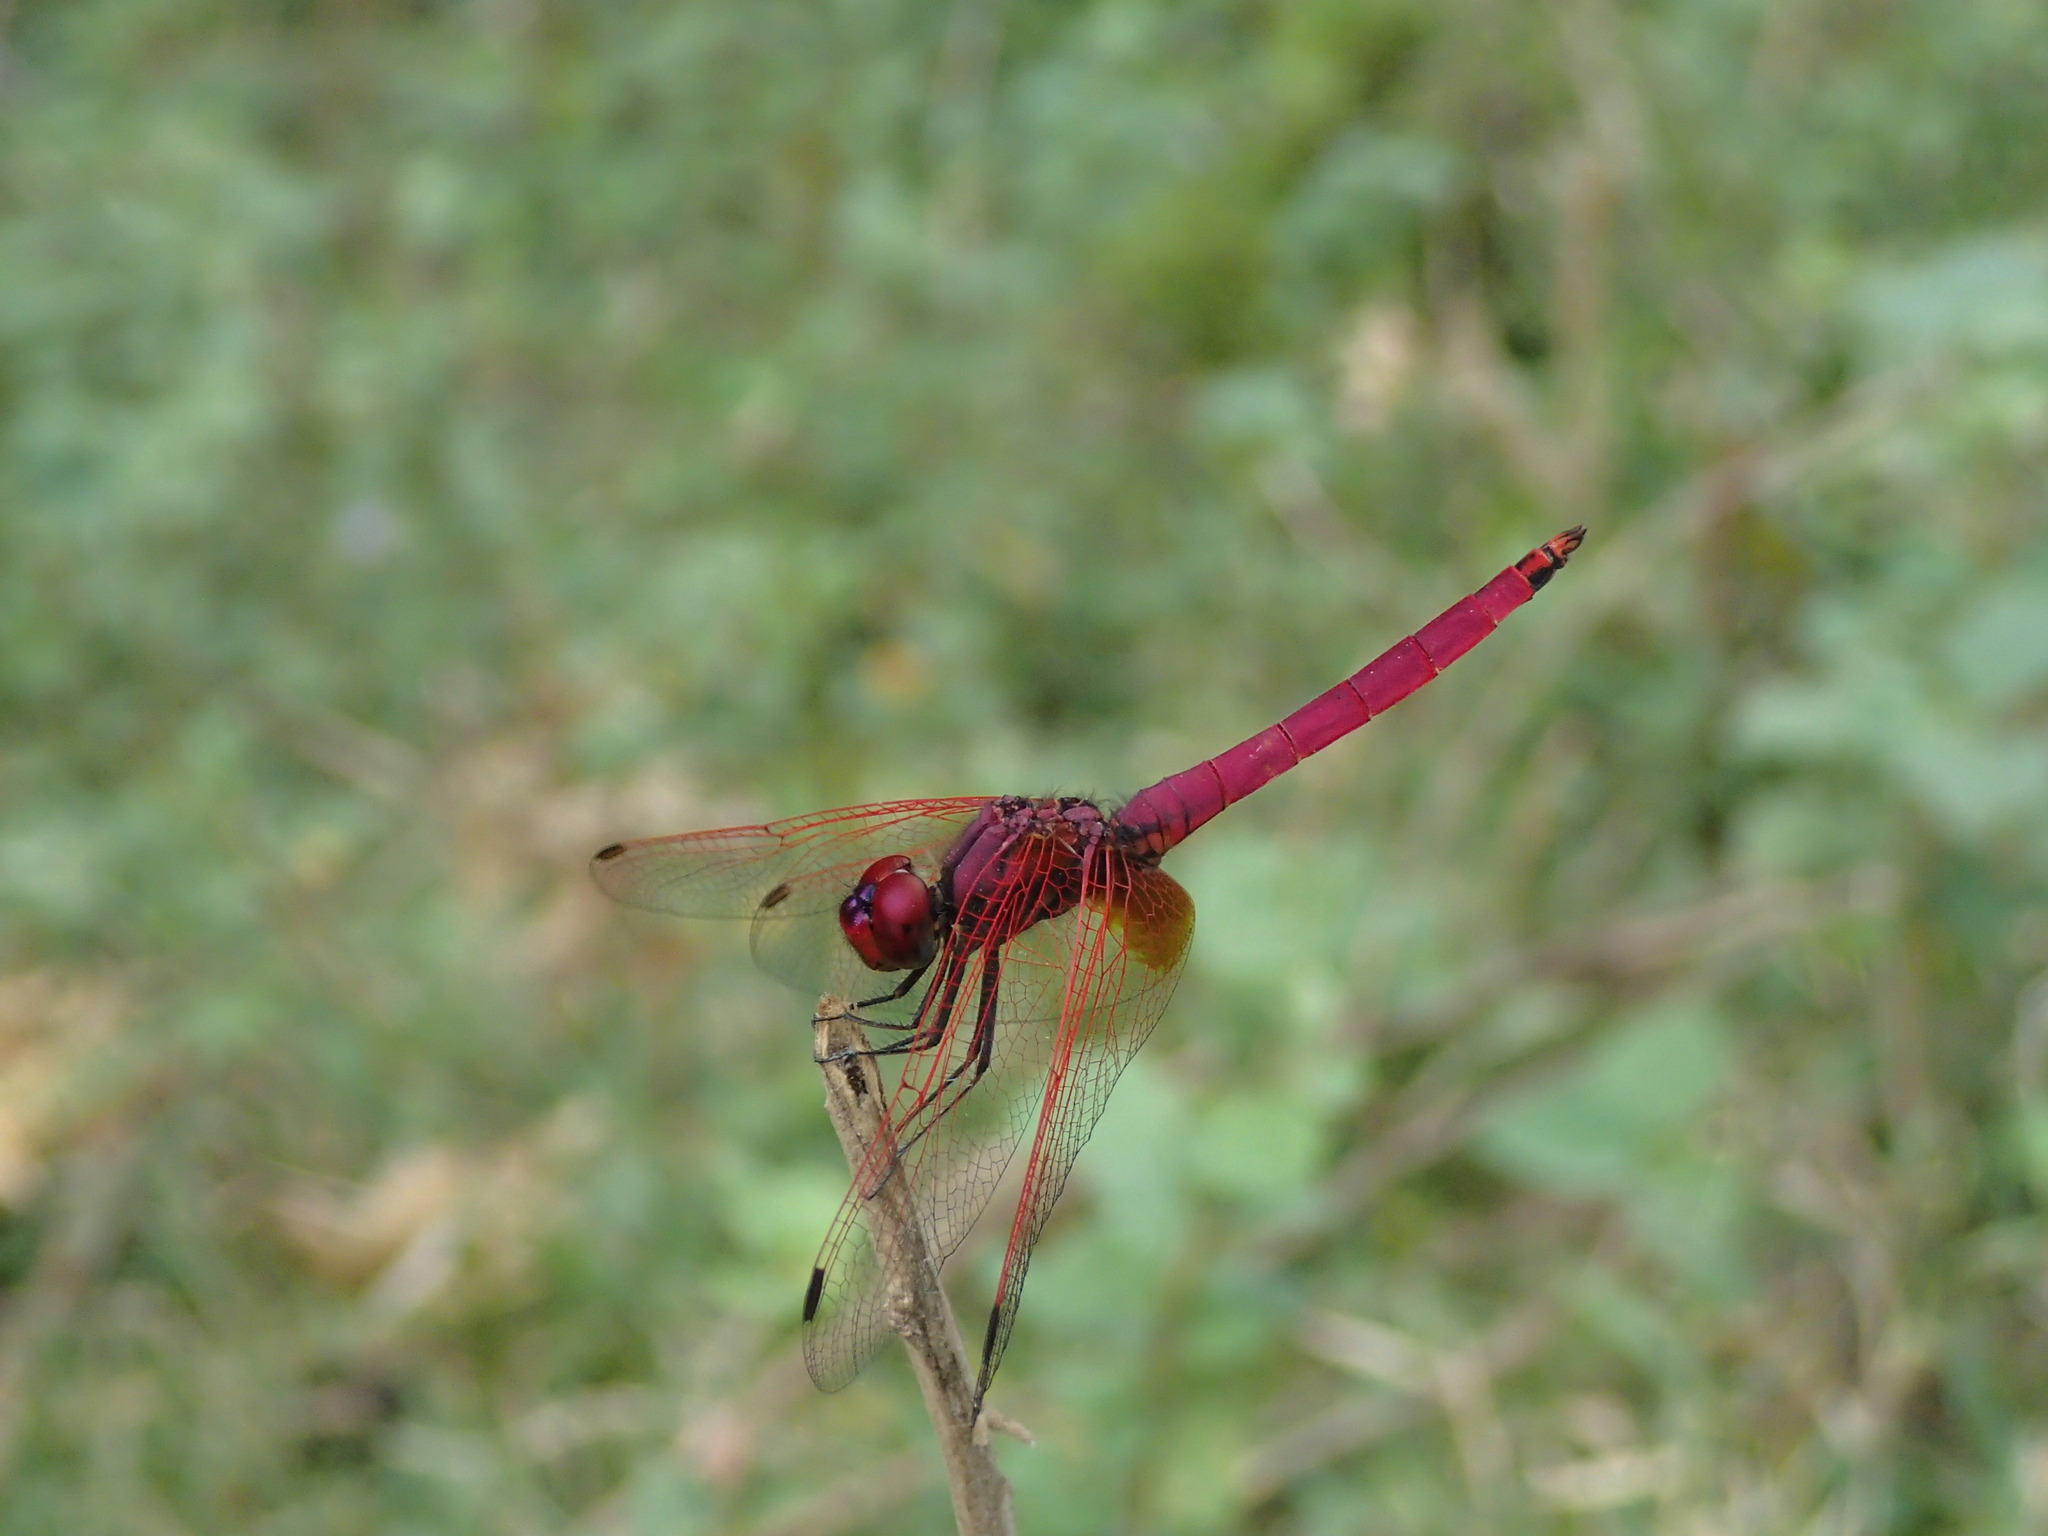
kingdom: Animalia
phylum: Arthropoda
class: Insecta
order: Odonata
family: Libellulidae
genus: Trithemis
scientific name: Trithemis aurora
